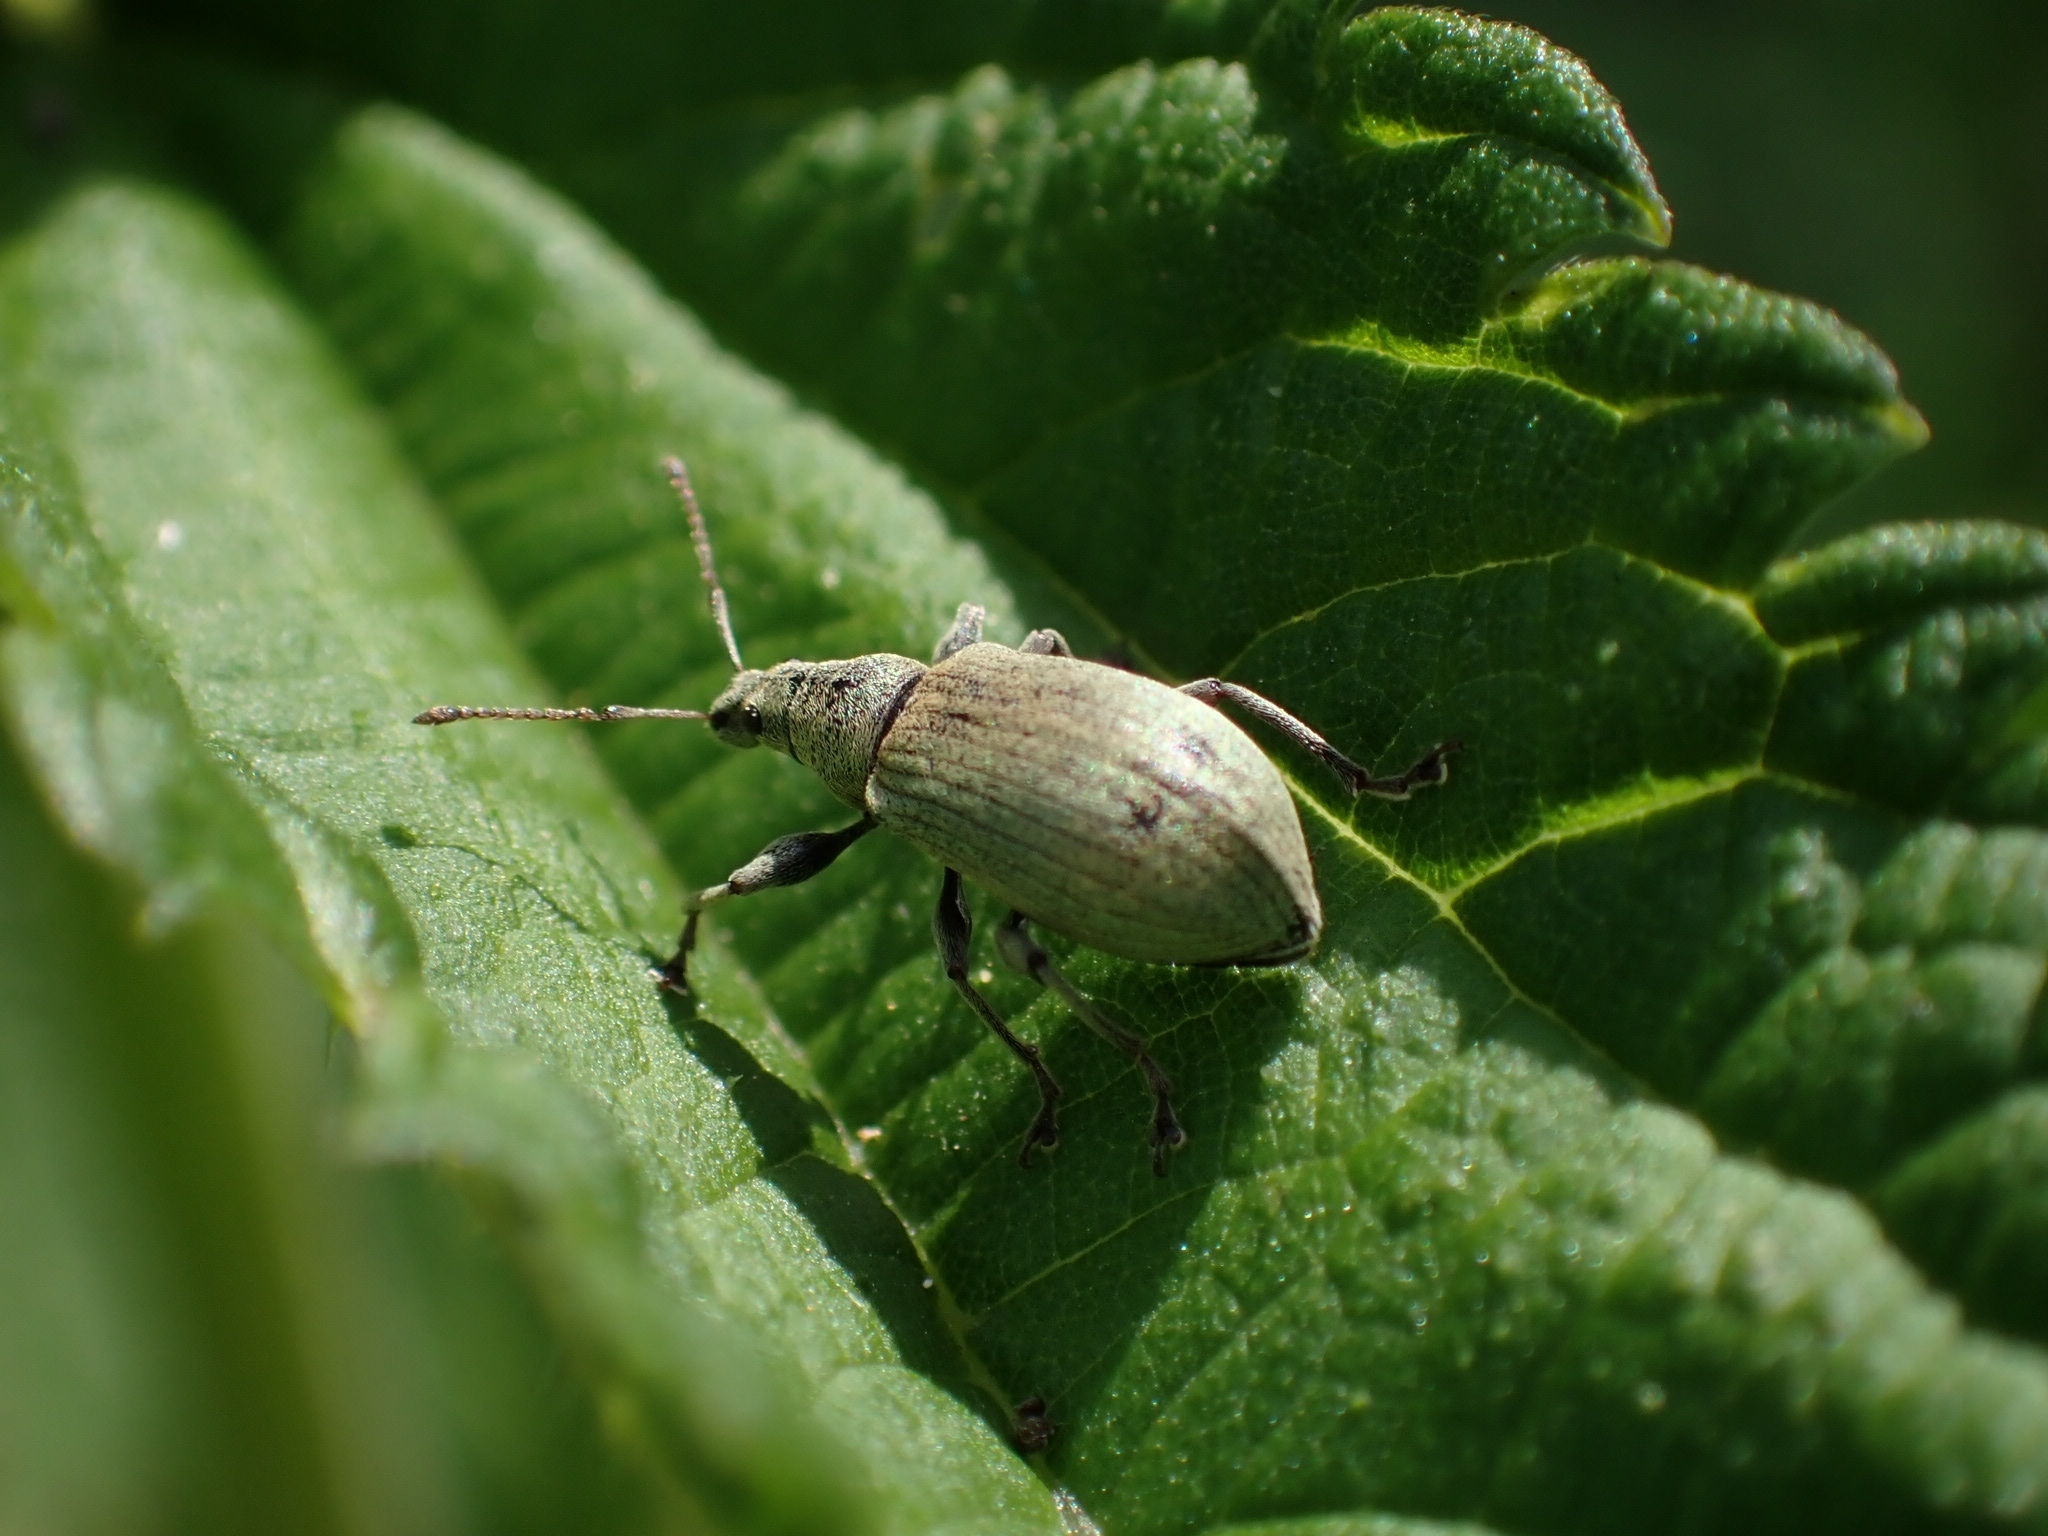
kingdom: Animalia
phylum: Arthropoda
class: Insecta
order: Coleoptera
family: Curculionidae
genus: Phyllobius
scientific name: Phyllobius pomaceus
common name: Green nettle weevil
